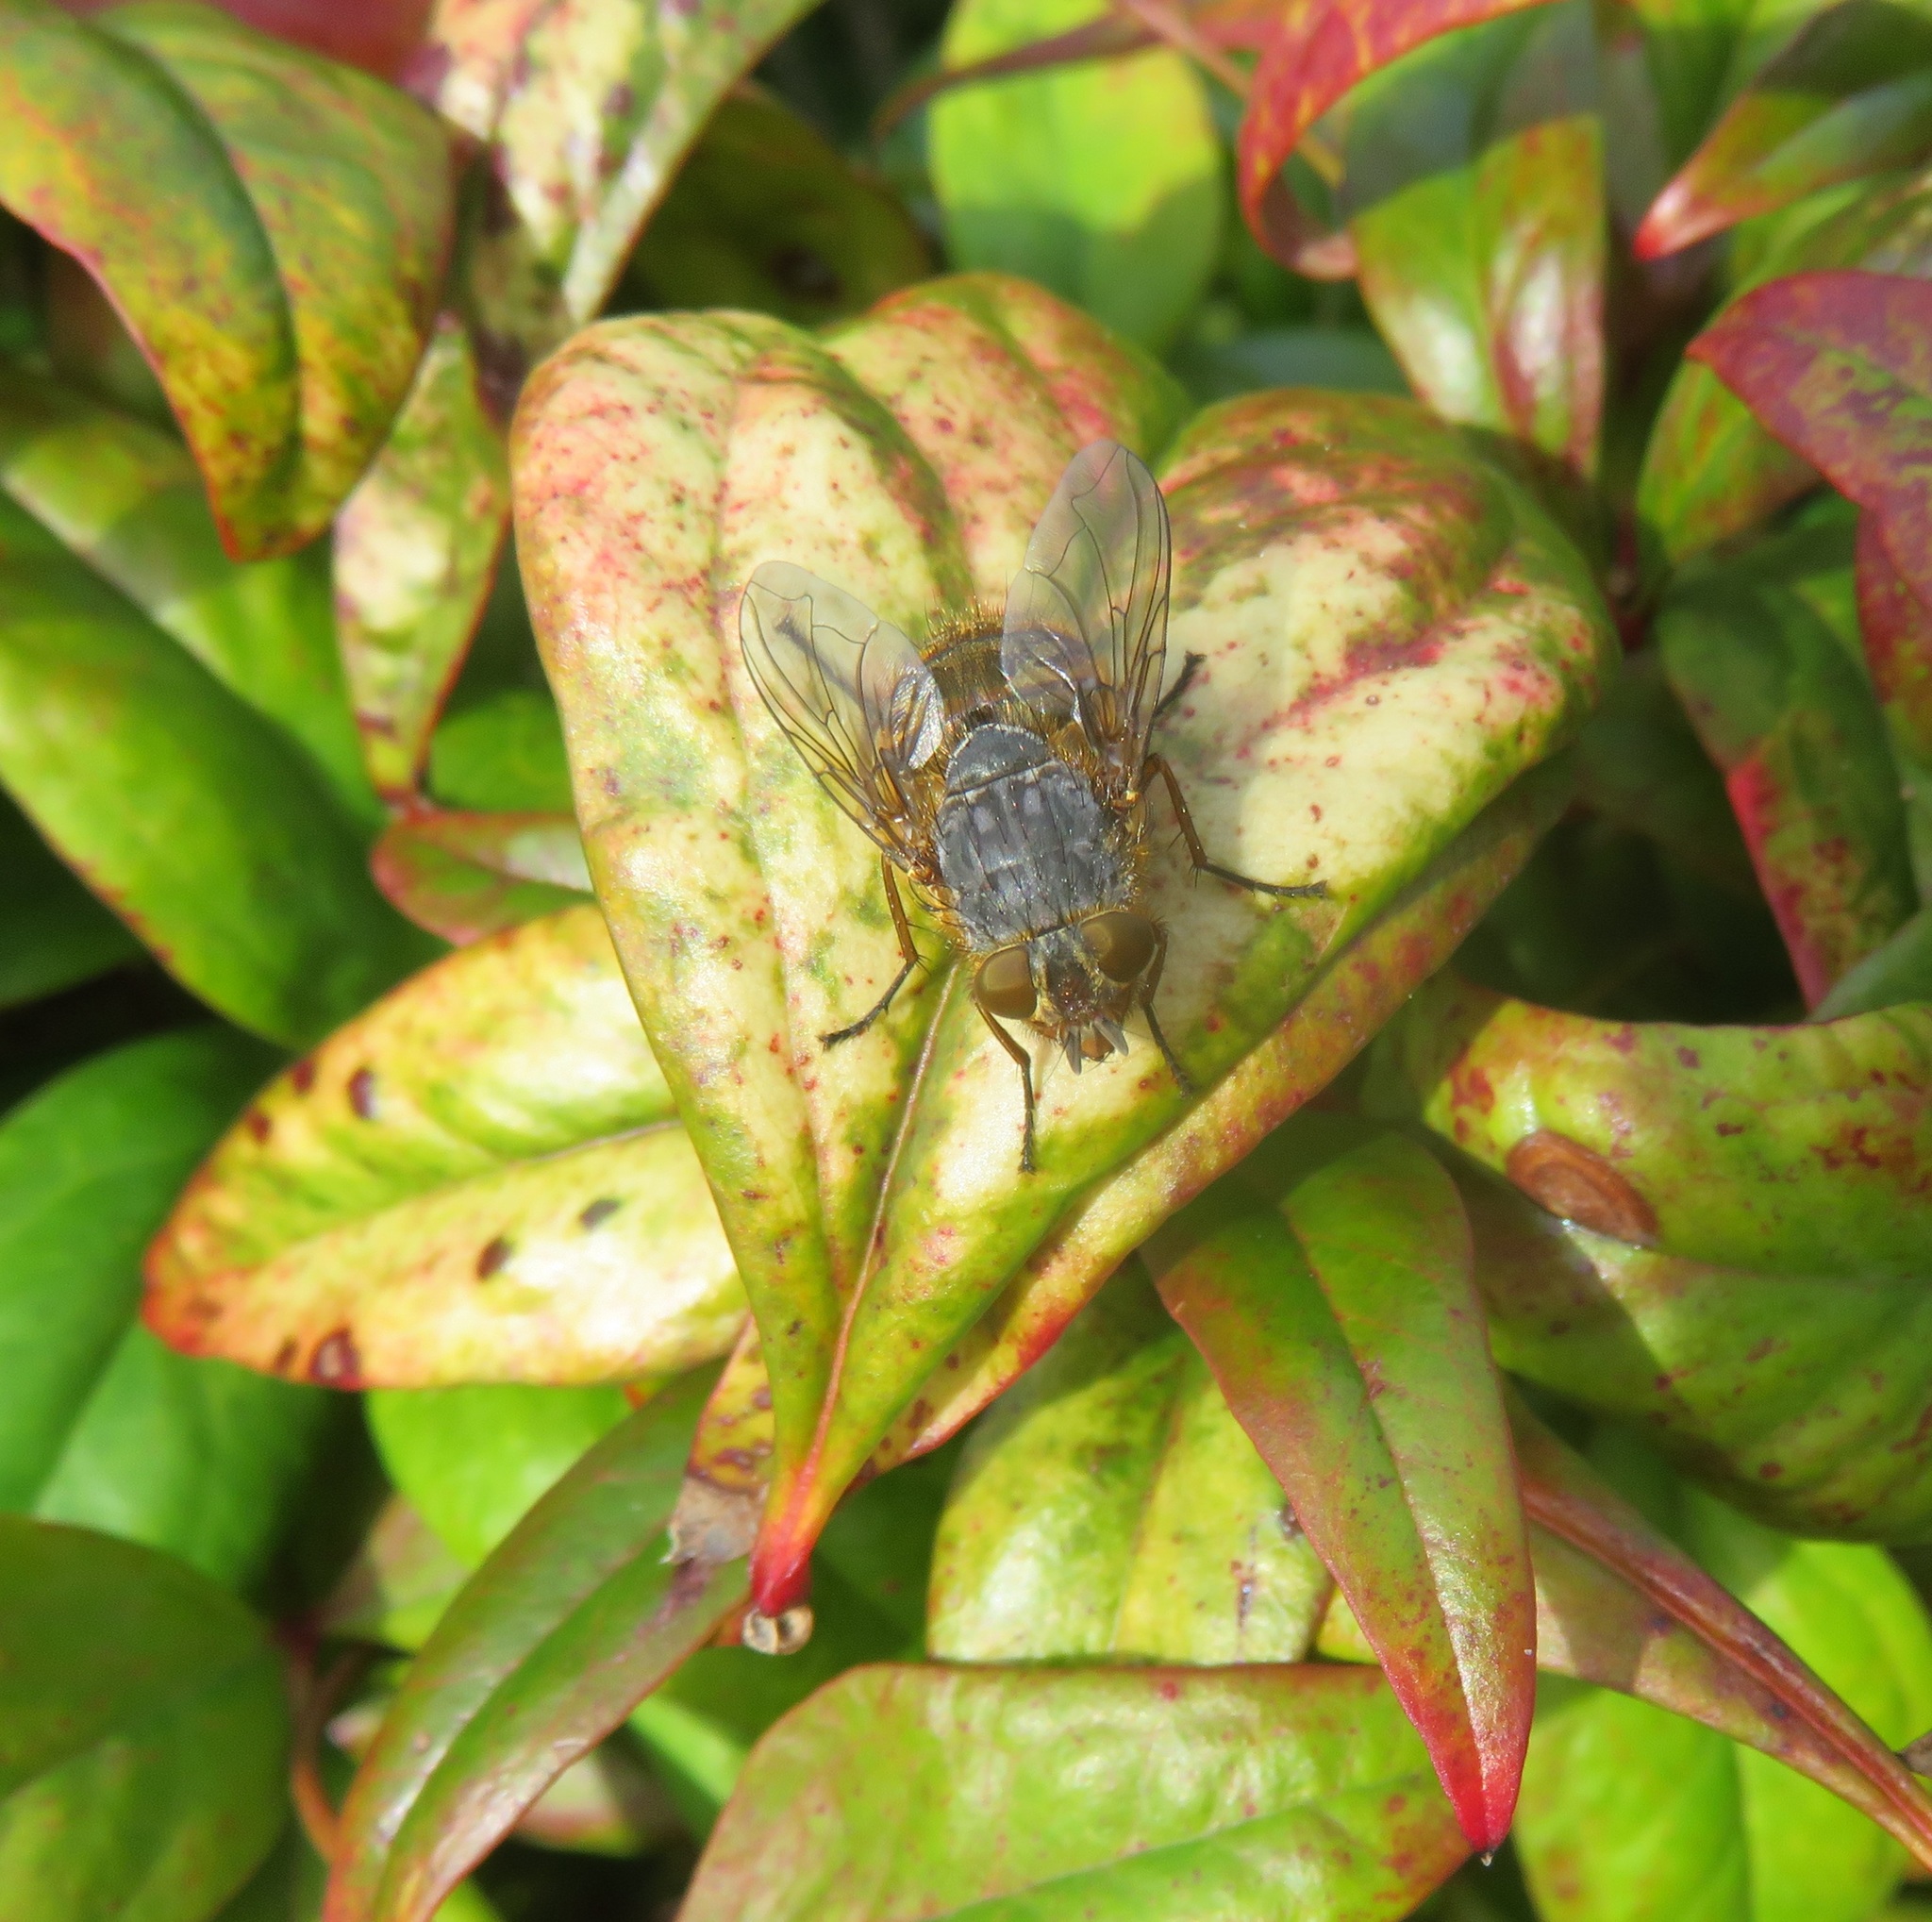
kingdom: Animalia
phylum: Arthropoda
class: Insecta
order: Diptera
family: Calliphoridae
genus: Calliphora
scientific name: Calliphora hilli
